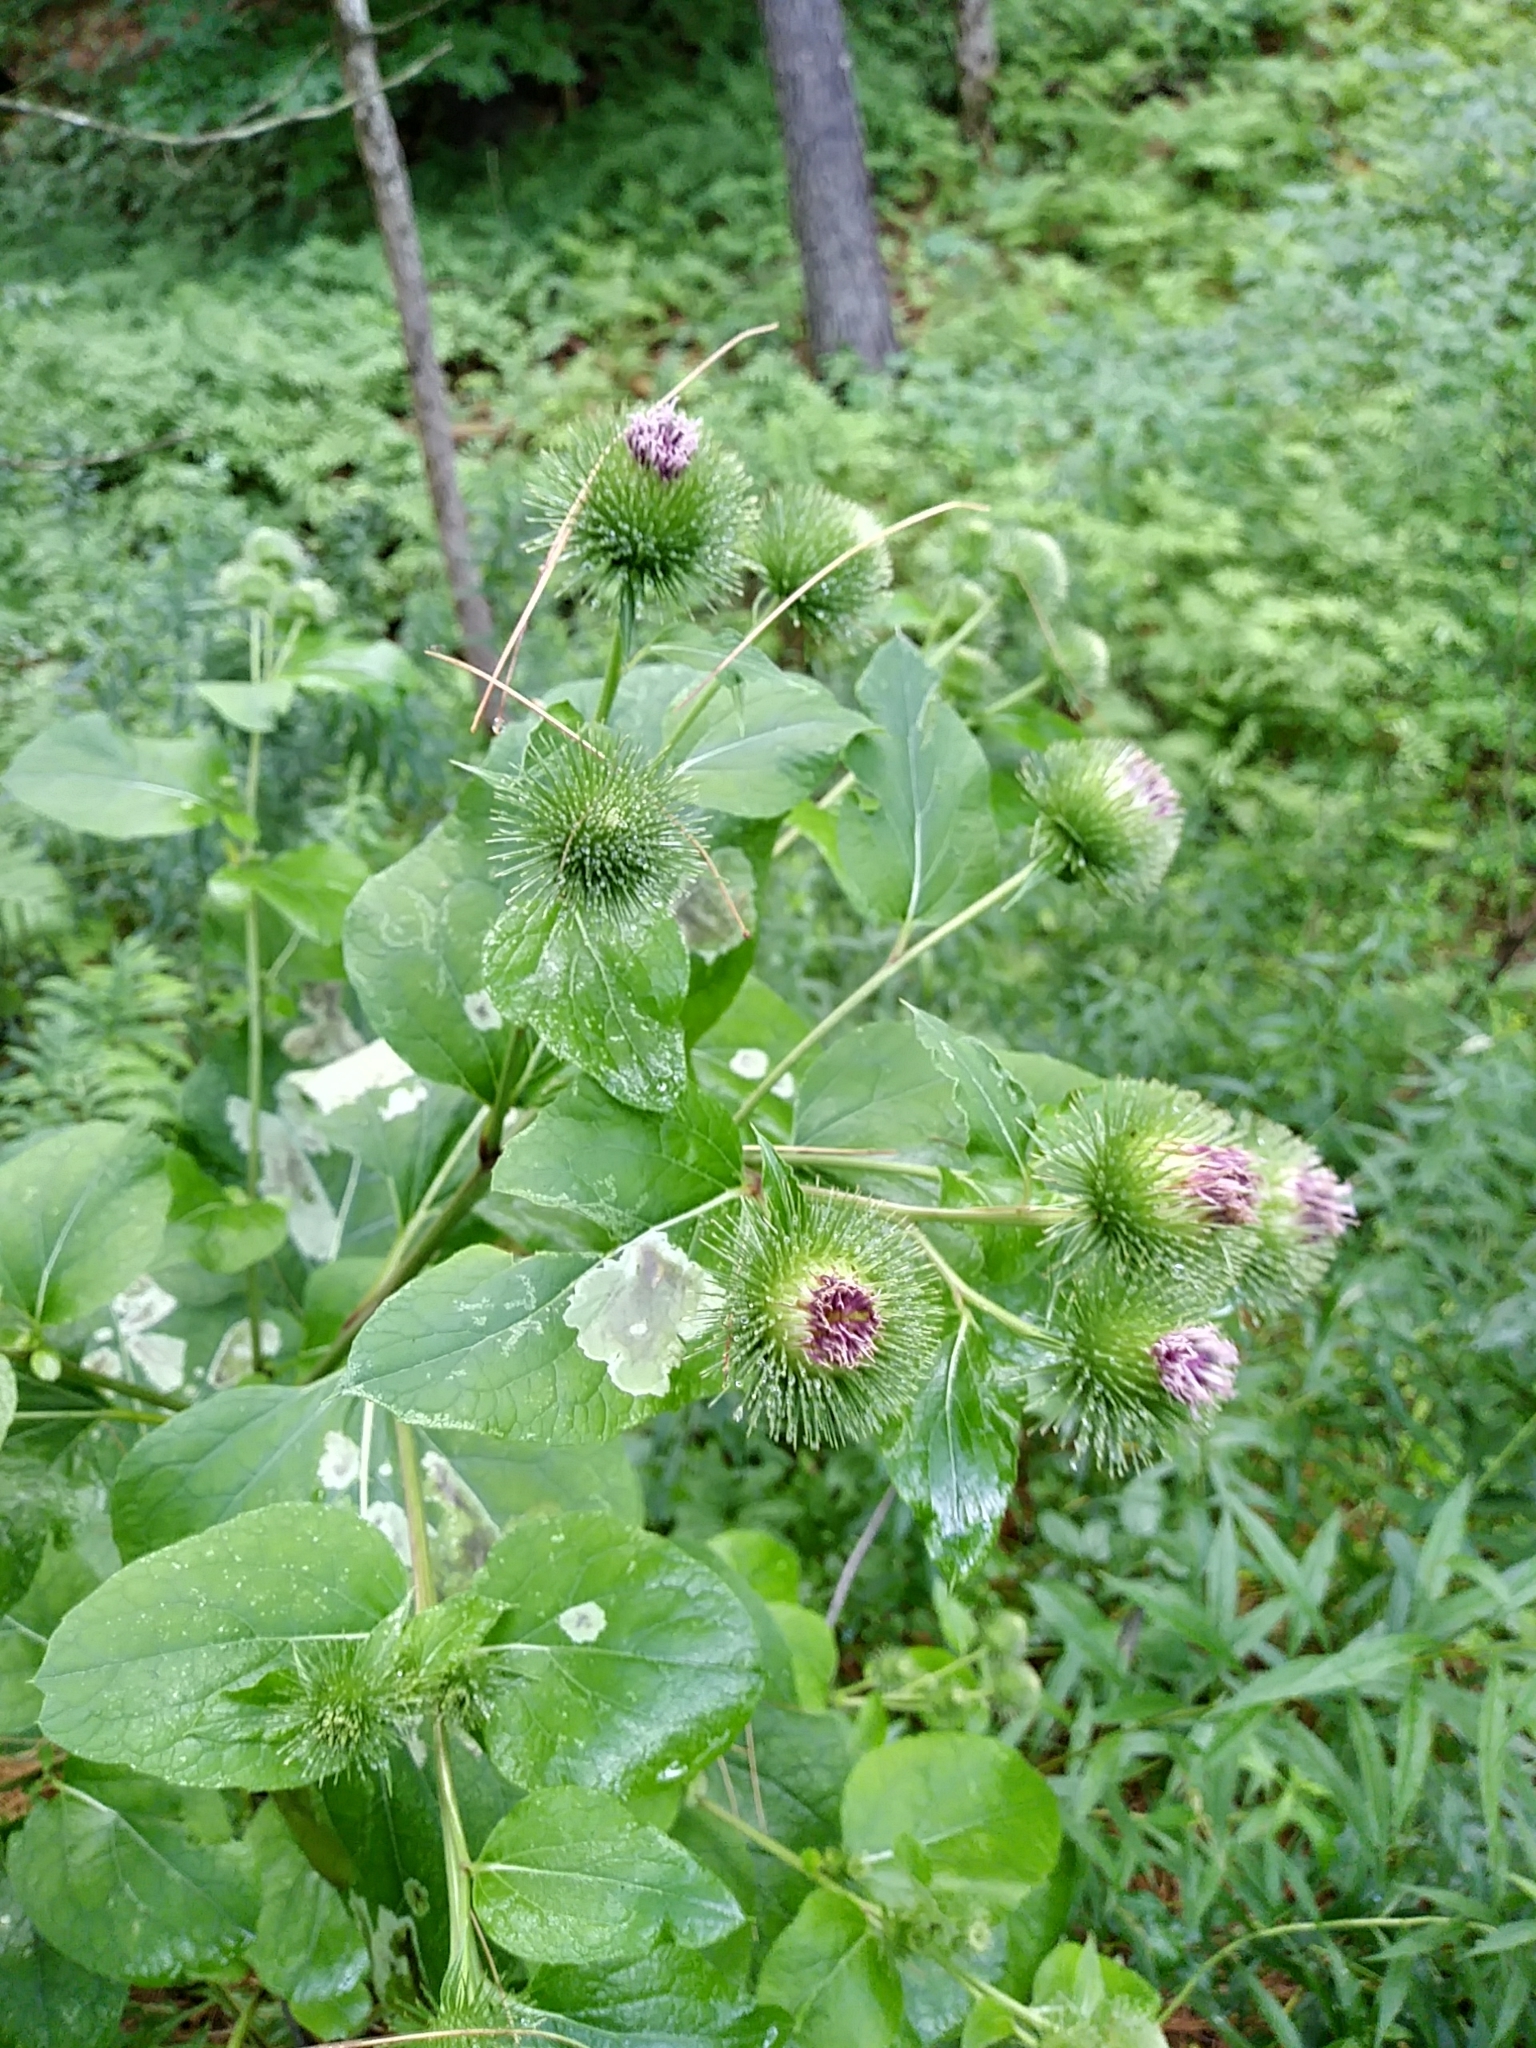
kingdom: Plantae
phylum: Tracheophyta
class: Magnoliopsida
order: Asterales
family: Asteraceae
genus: Arctium
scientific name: Arctium lappa
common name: Greater burdock
